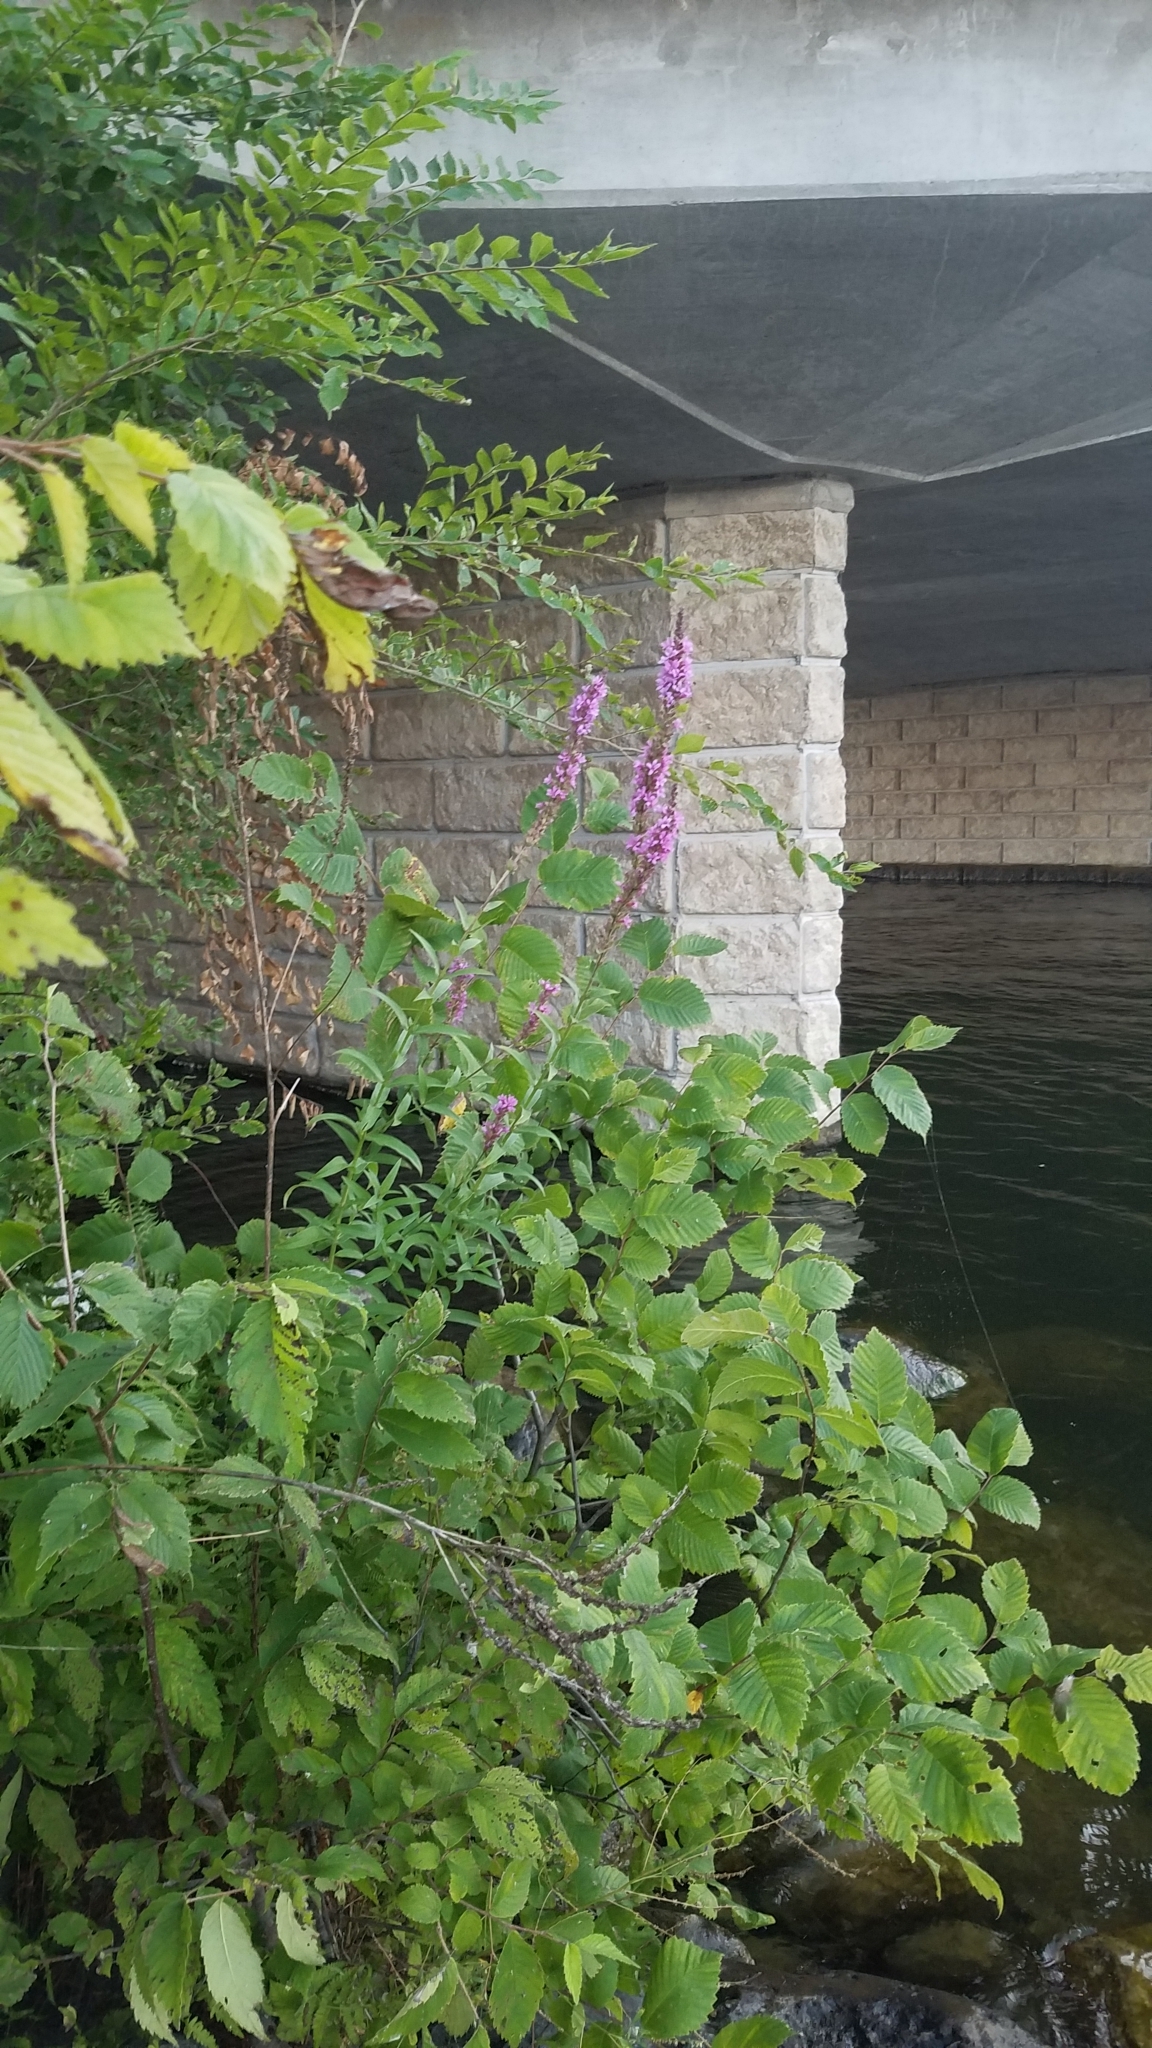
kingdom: Plantae
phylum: Tracheophyta
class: Magnoliopsida
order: Myrtales
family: Lythraceae
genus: Lythrum
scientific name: Lythrum salicaria
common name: Purple loosestrife
